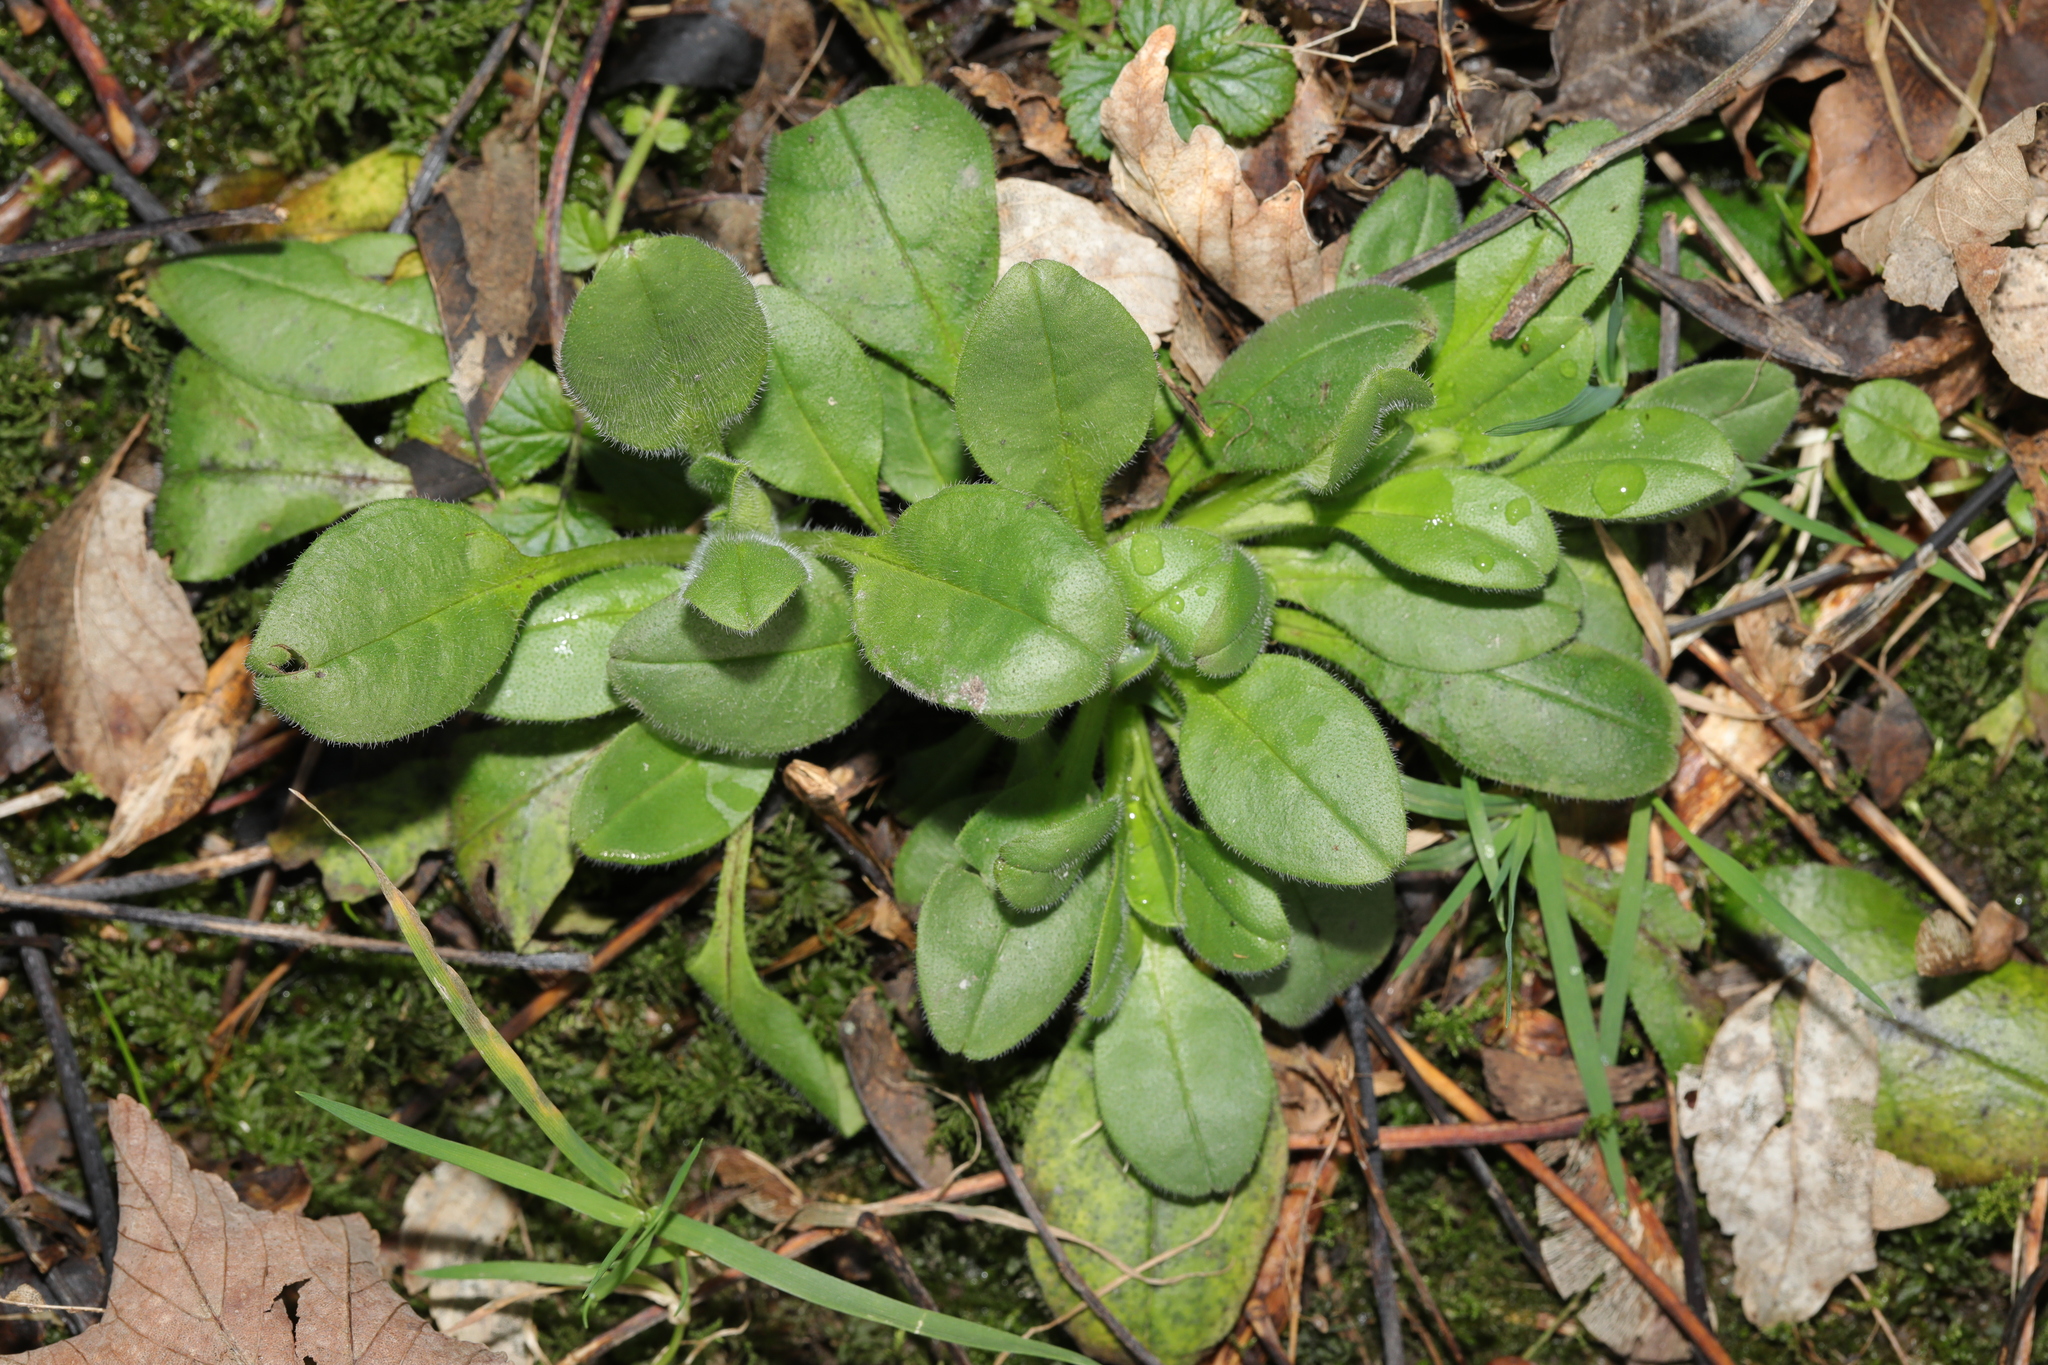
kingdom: Plantae
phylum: Tracheophyta
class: Magnoliopsida
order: Caryophyllales
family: Caryophyllaceae
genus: Silene
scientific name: Silene dioica
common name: Red campion
